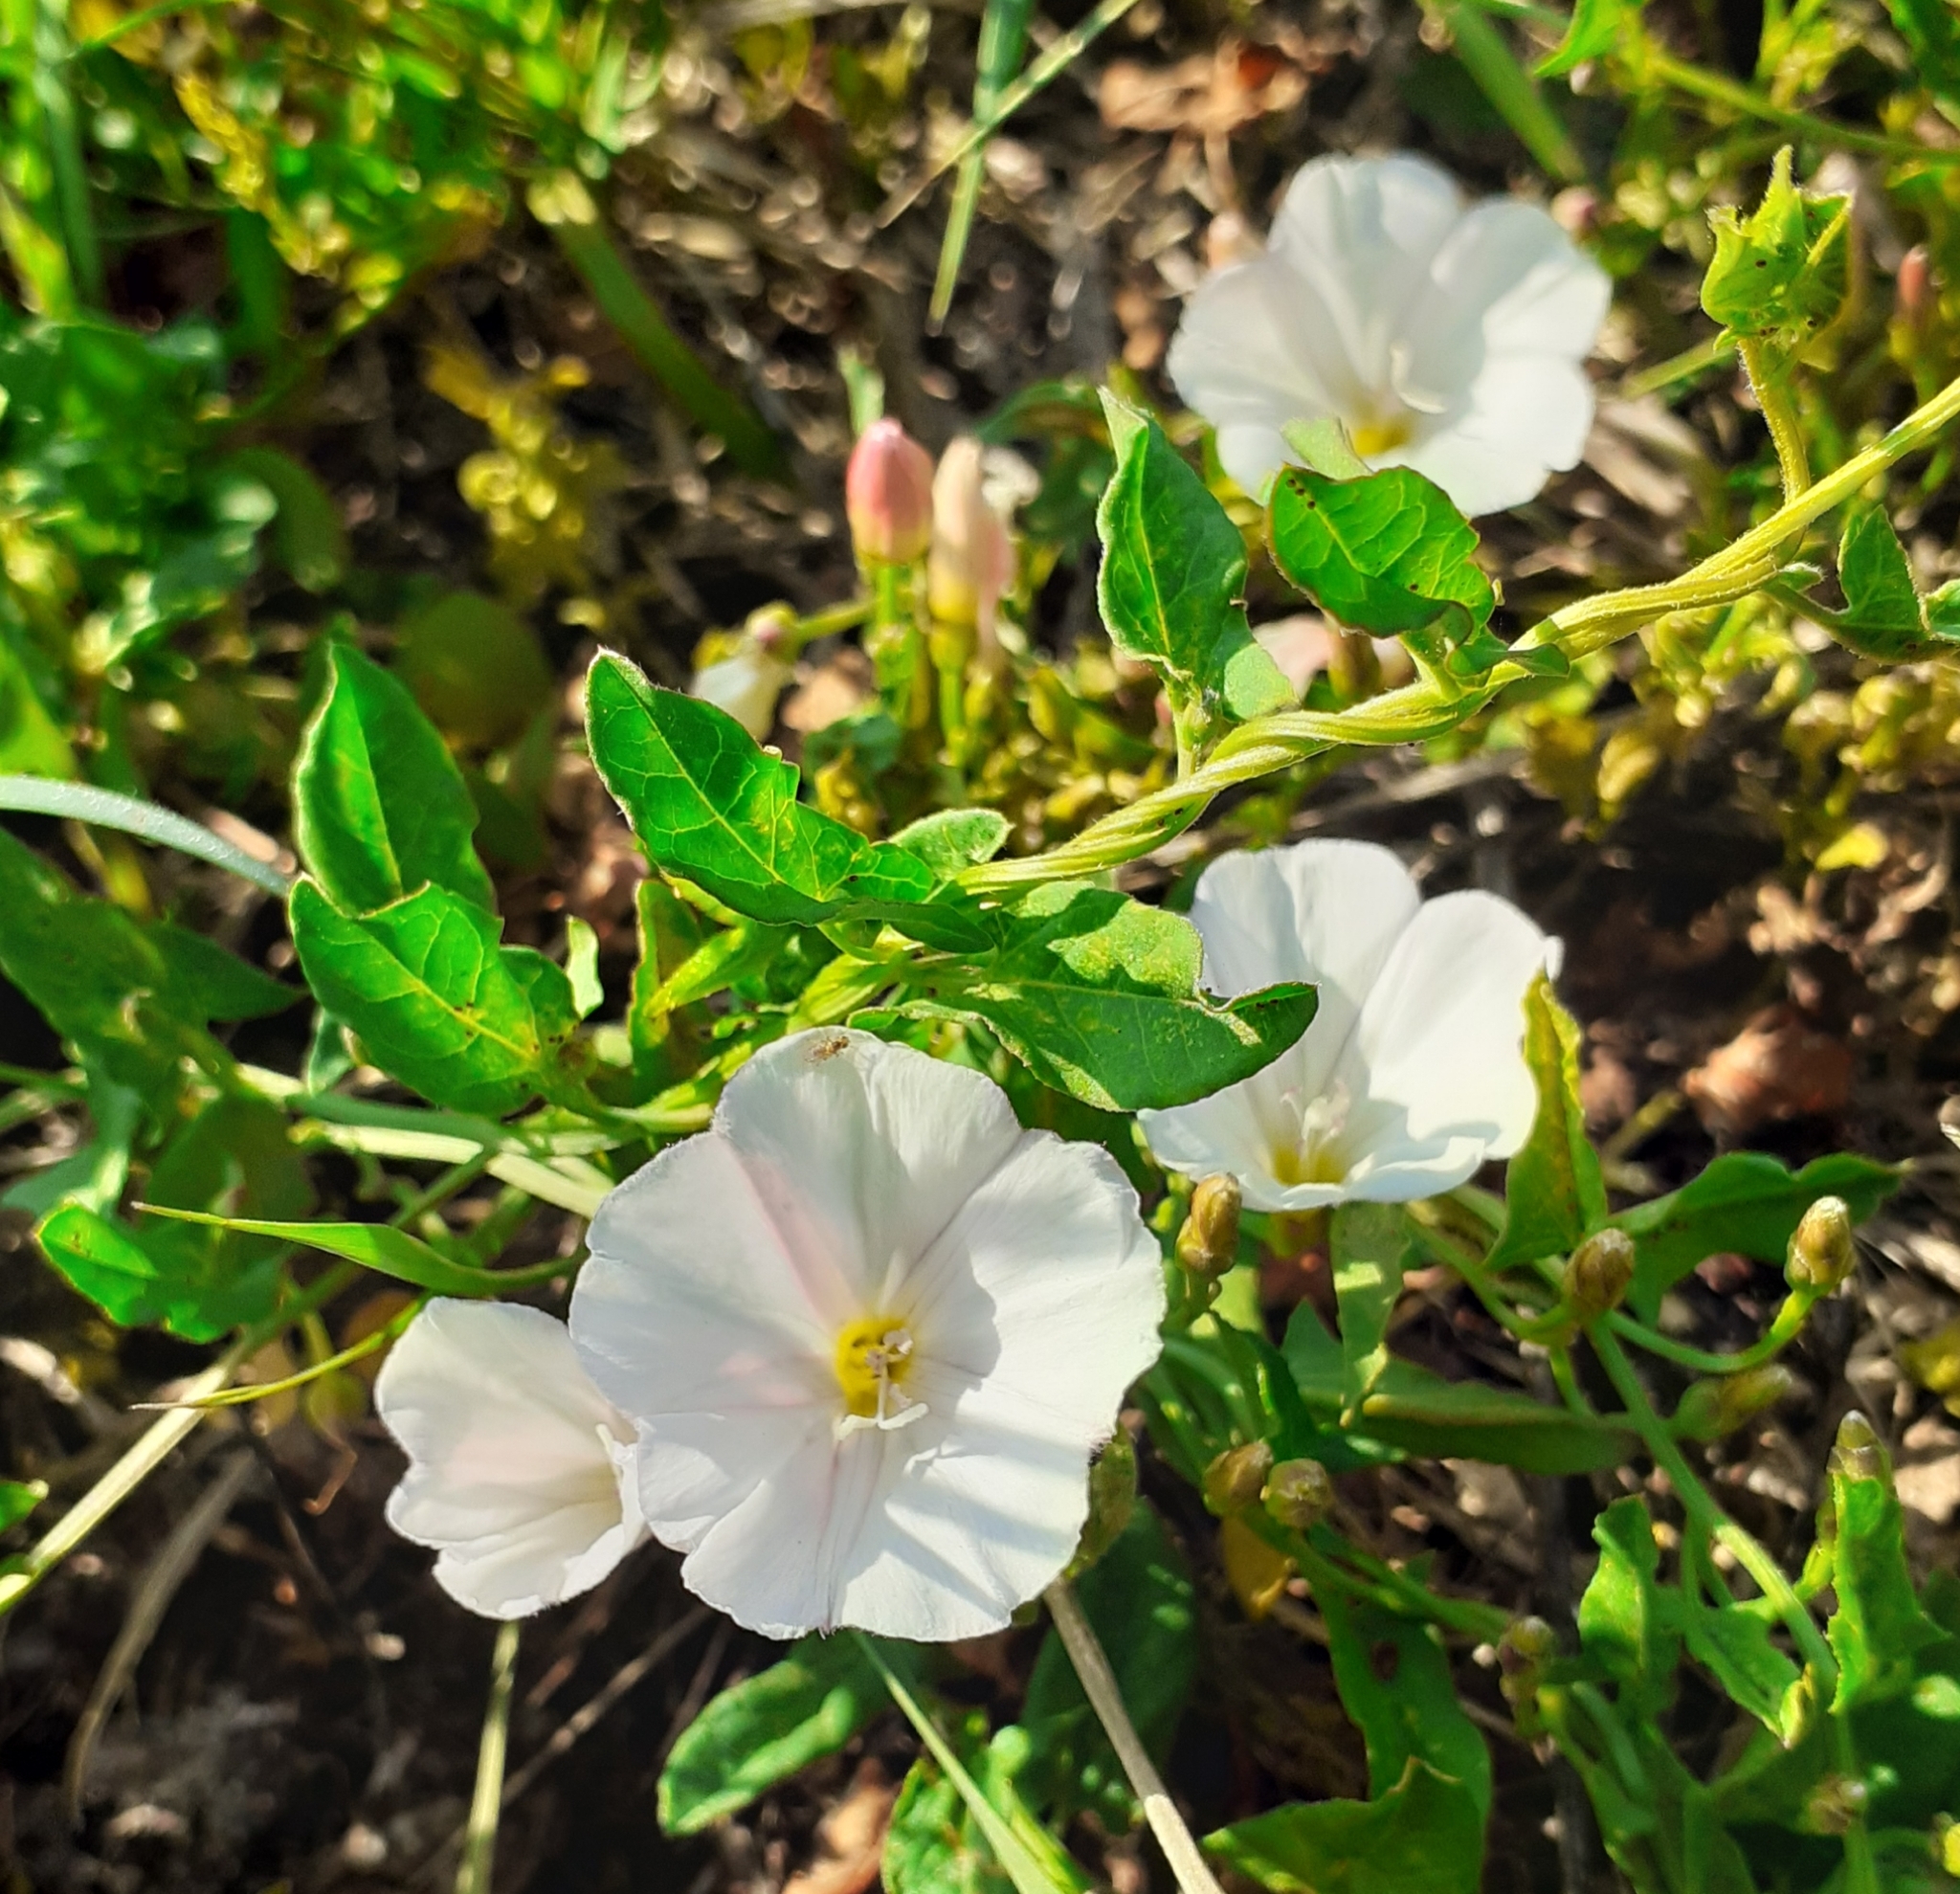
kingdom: Plantae
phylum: Tracheophyta
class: Magnoliopsida
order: Solanales
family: Convolvulaceae
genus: Convolvulus
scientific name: Convolvulus arvensis
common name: Field bindweed
